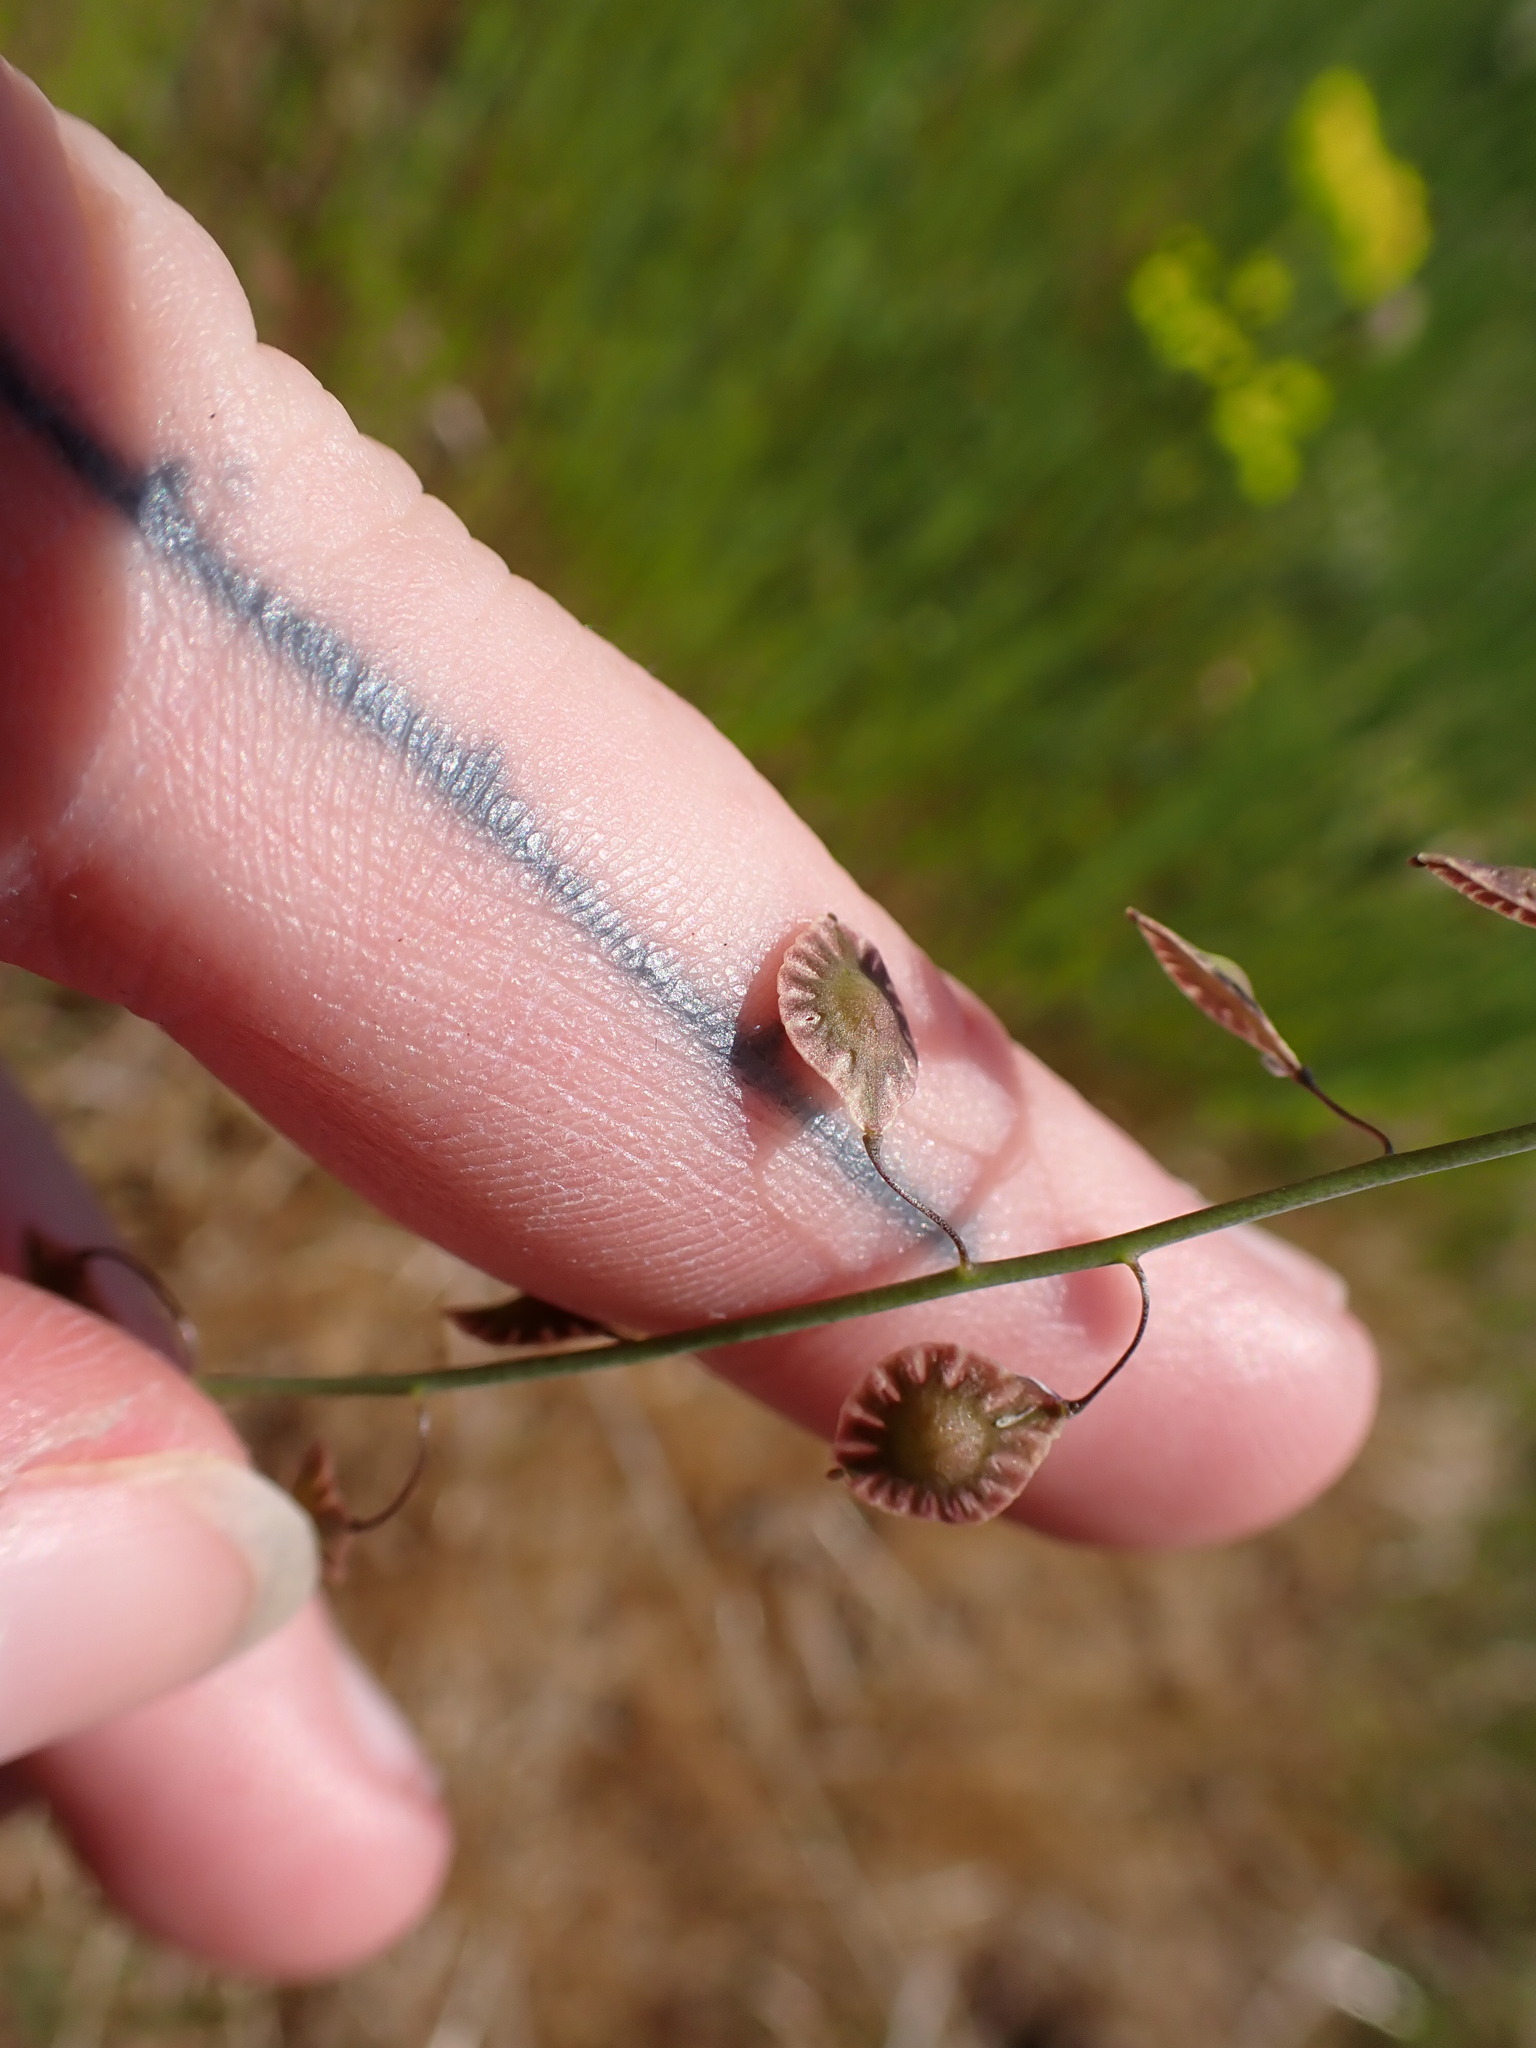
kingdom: Plantae
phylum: Tracheophyta
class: Magnoliopsida
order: Brassicales
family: Brassicaceae
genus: Thysanocarpus
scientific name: Thysanocarpus curvipes
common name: Sand fringepod
